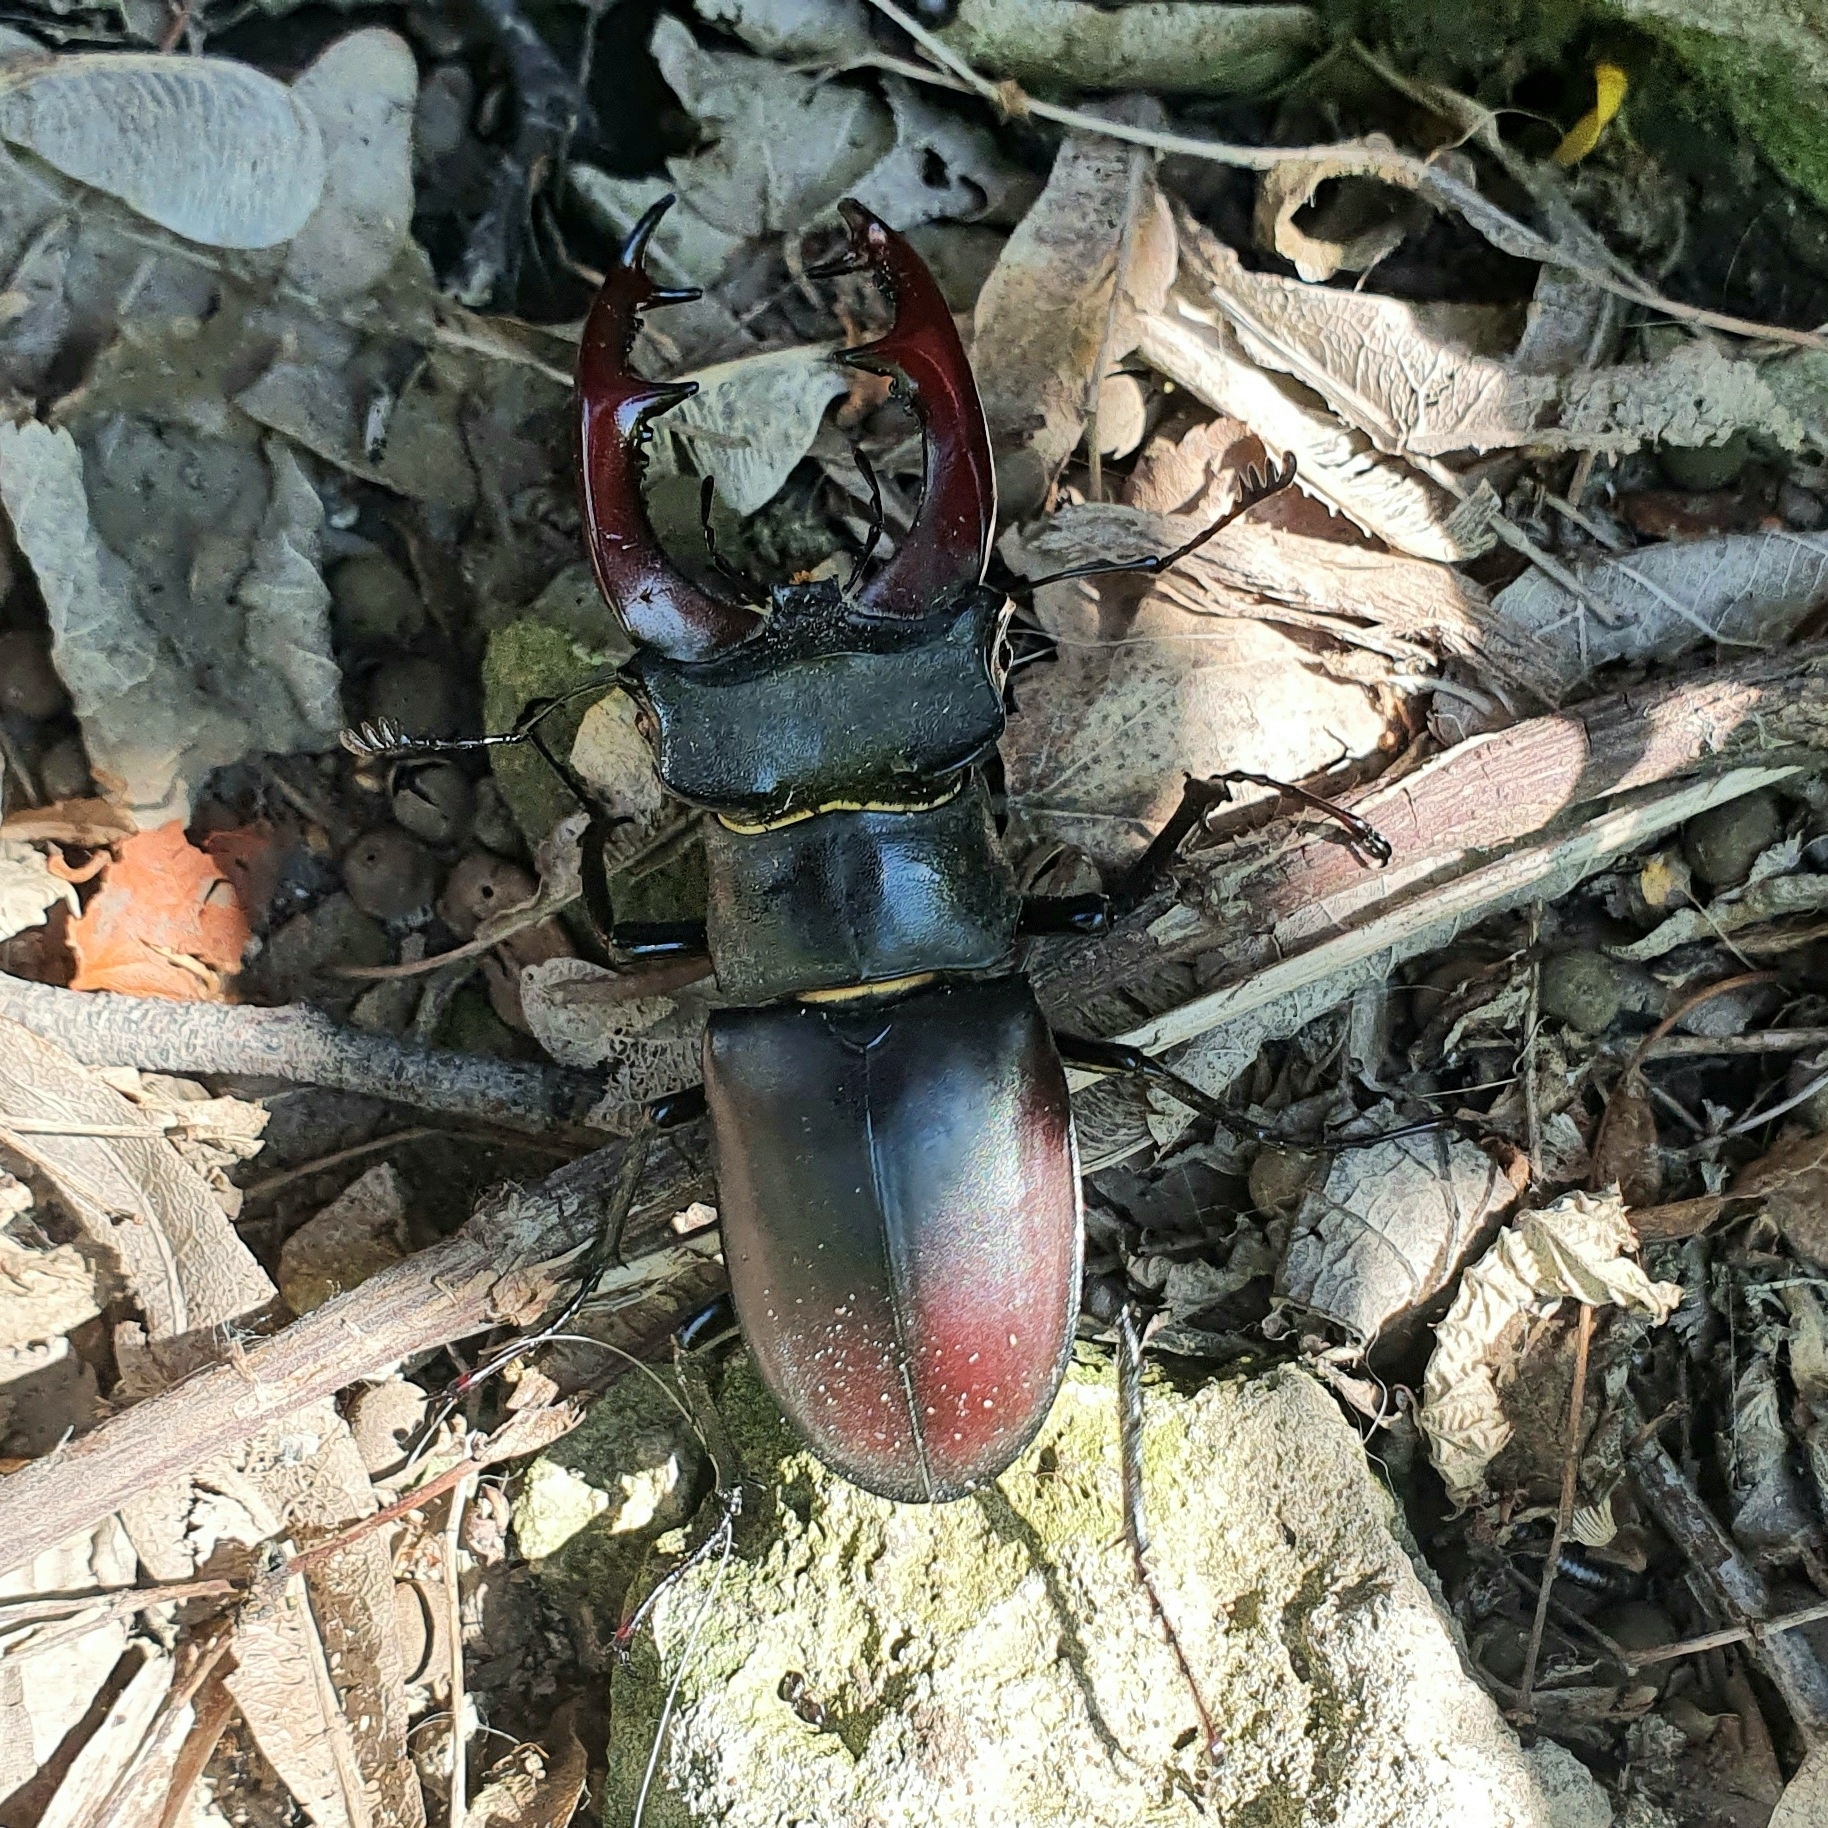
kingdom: Animalia
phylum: Arthropoda
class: Insecta
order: Coleoptera
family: Lucanidae
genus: Lucanus
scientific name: Lucanus cervus
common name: Stag beetle
